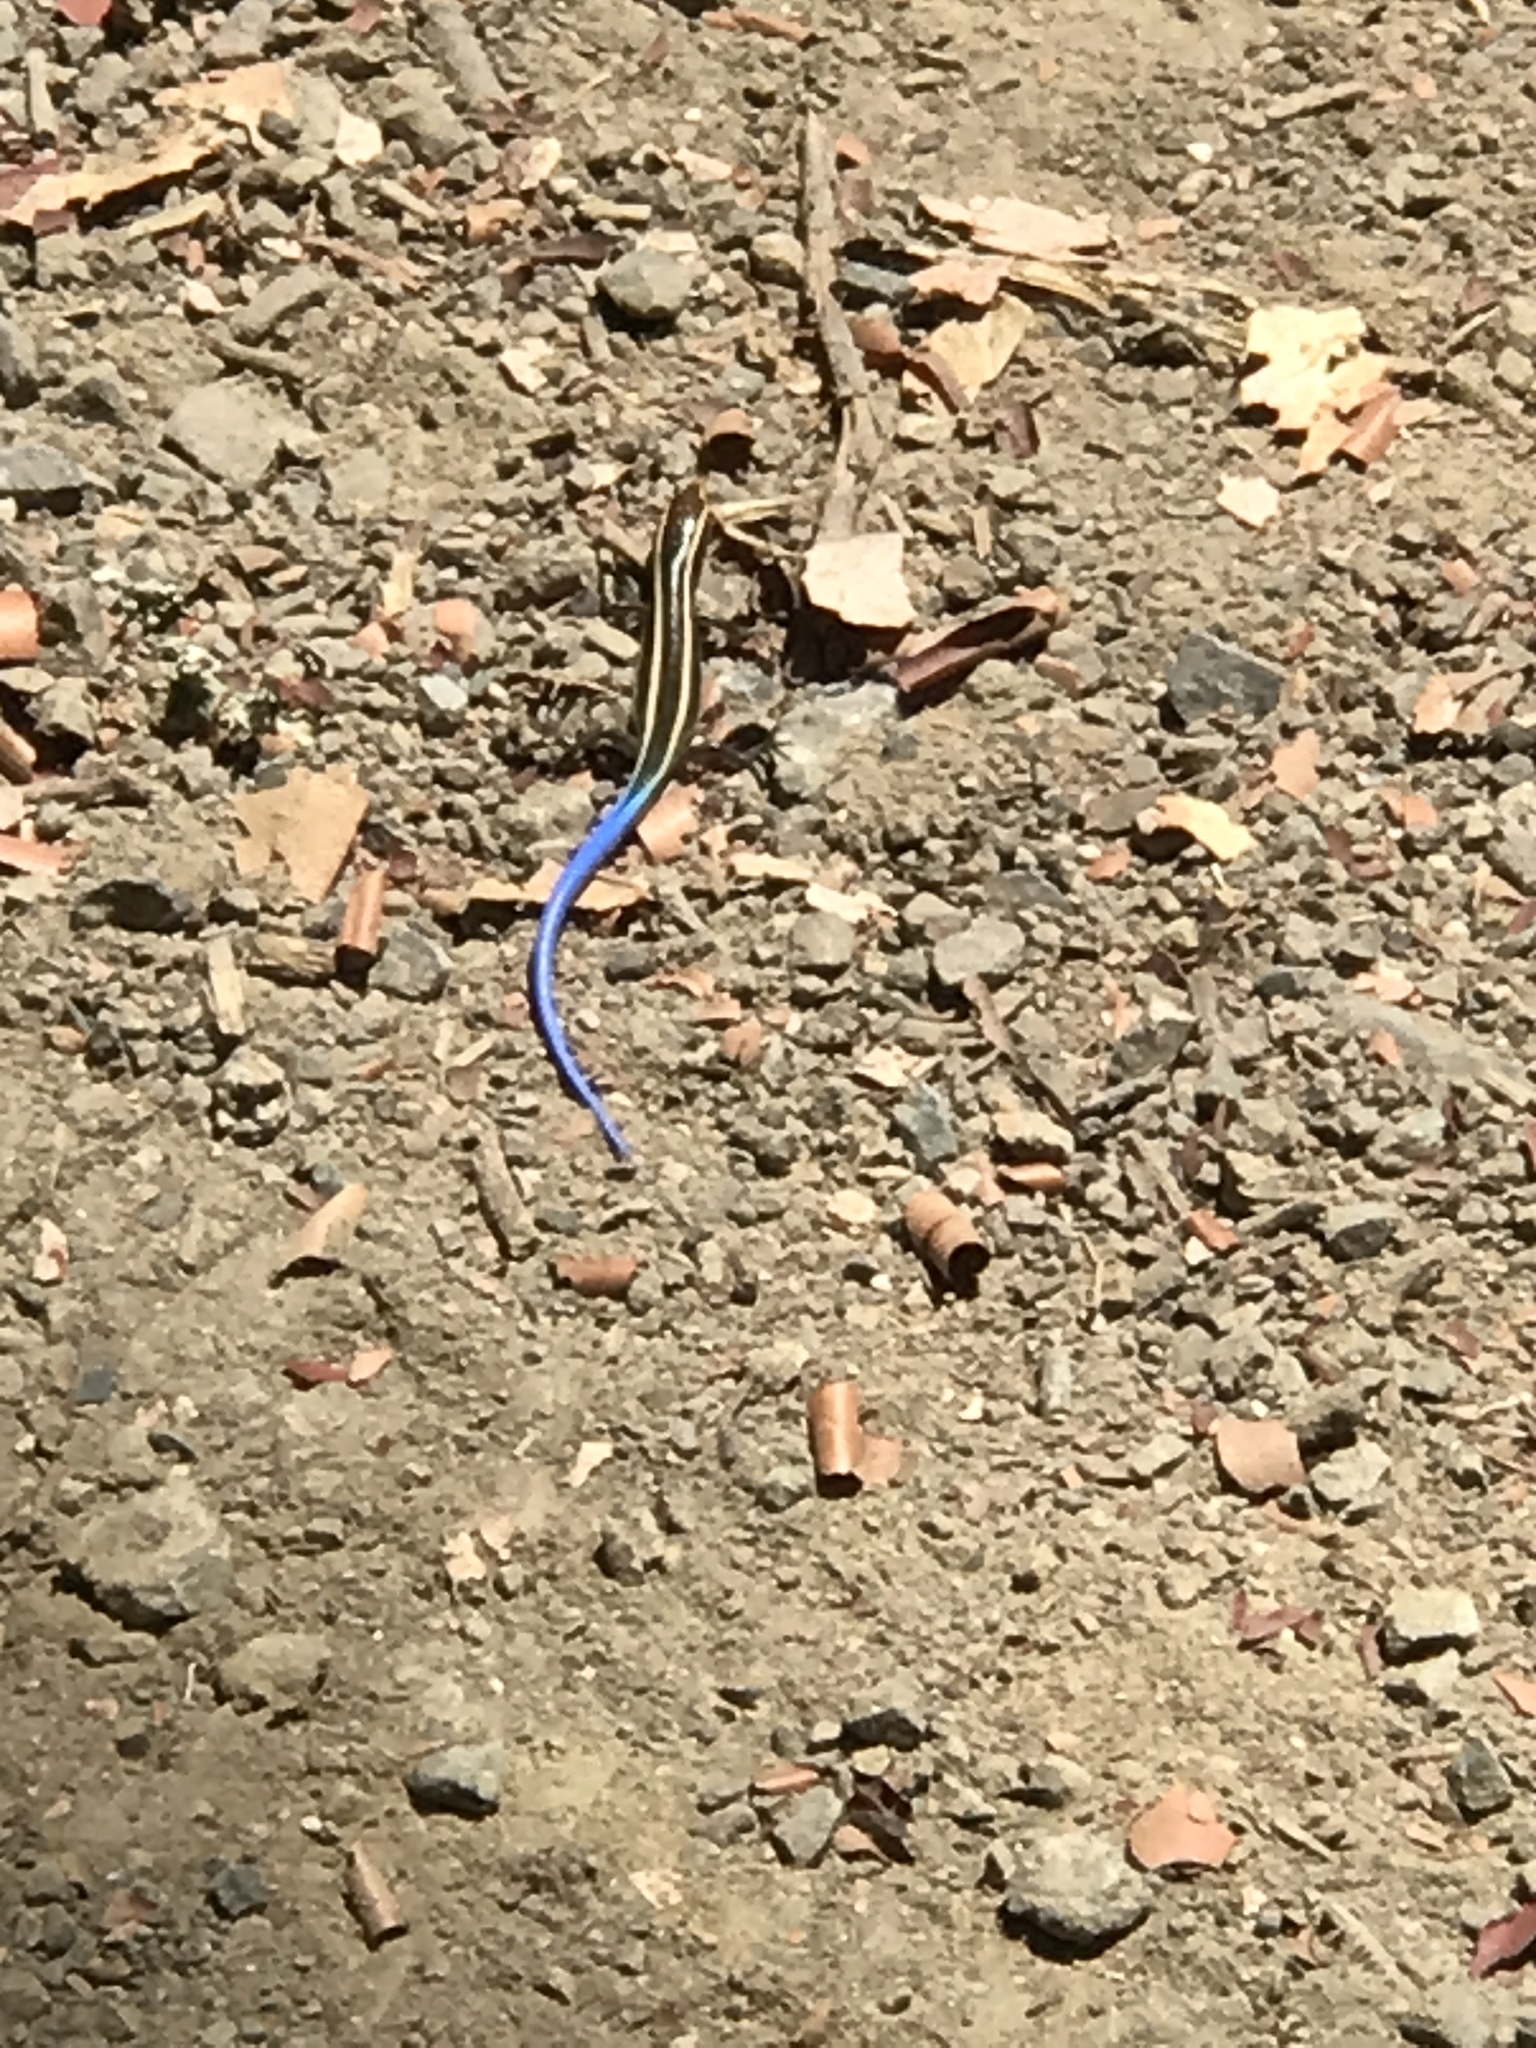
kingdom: Animalia
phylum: Chordata
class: Squamata
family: Scincidae
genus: Plestiodon
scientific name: Plestiodon skiltonianus
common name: Coronado island skink [interparietalis]
